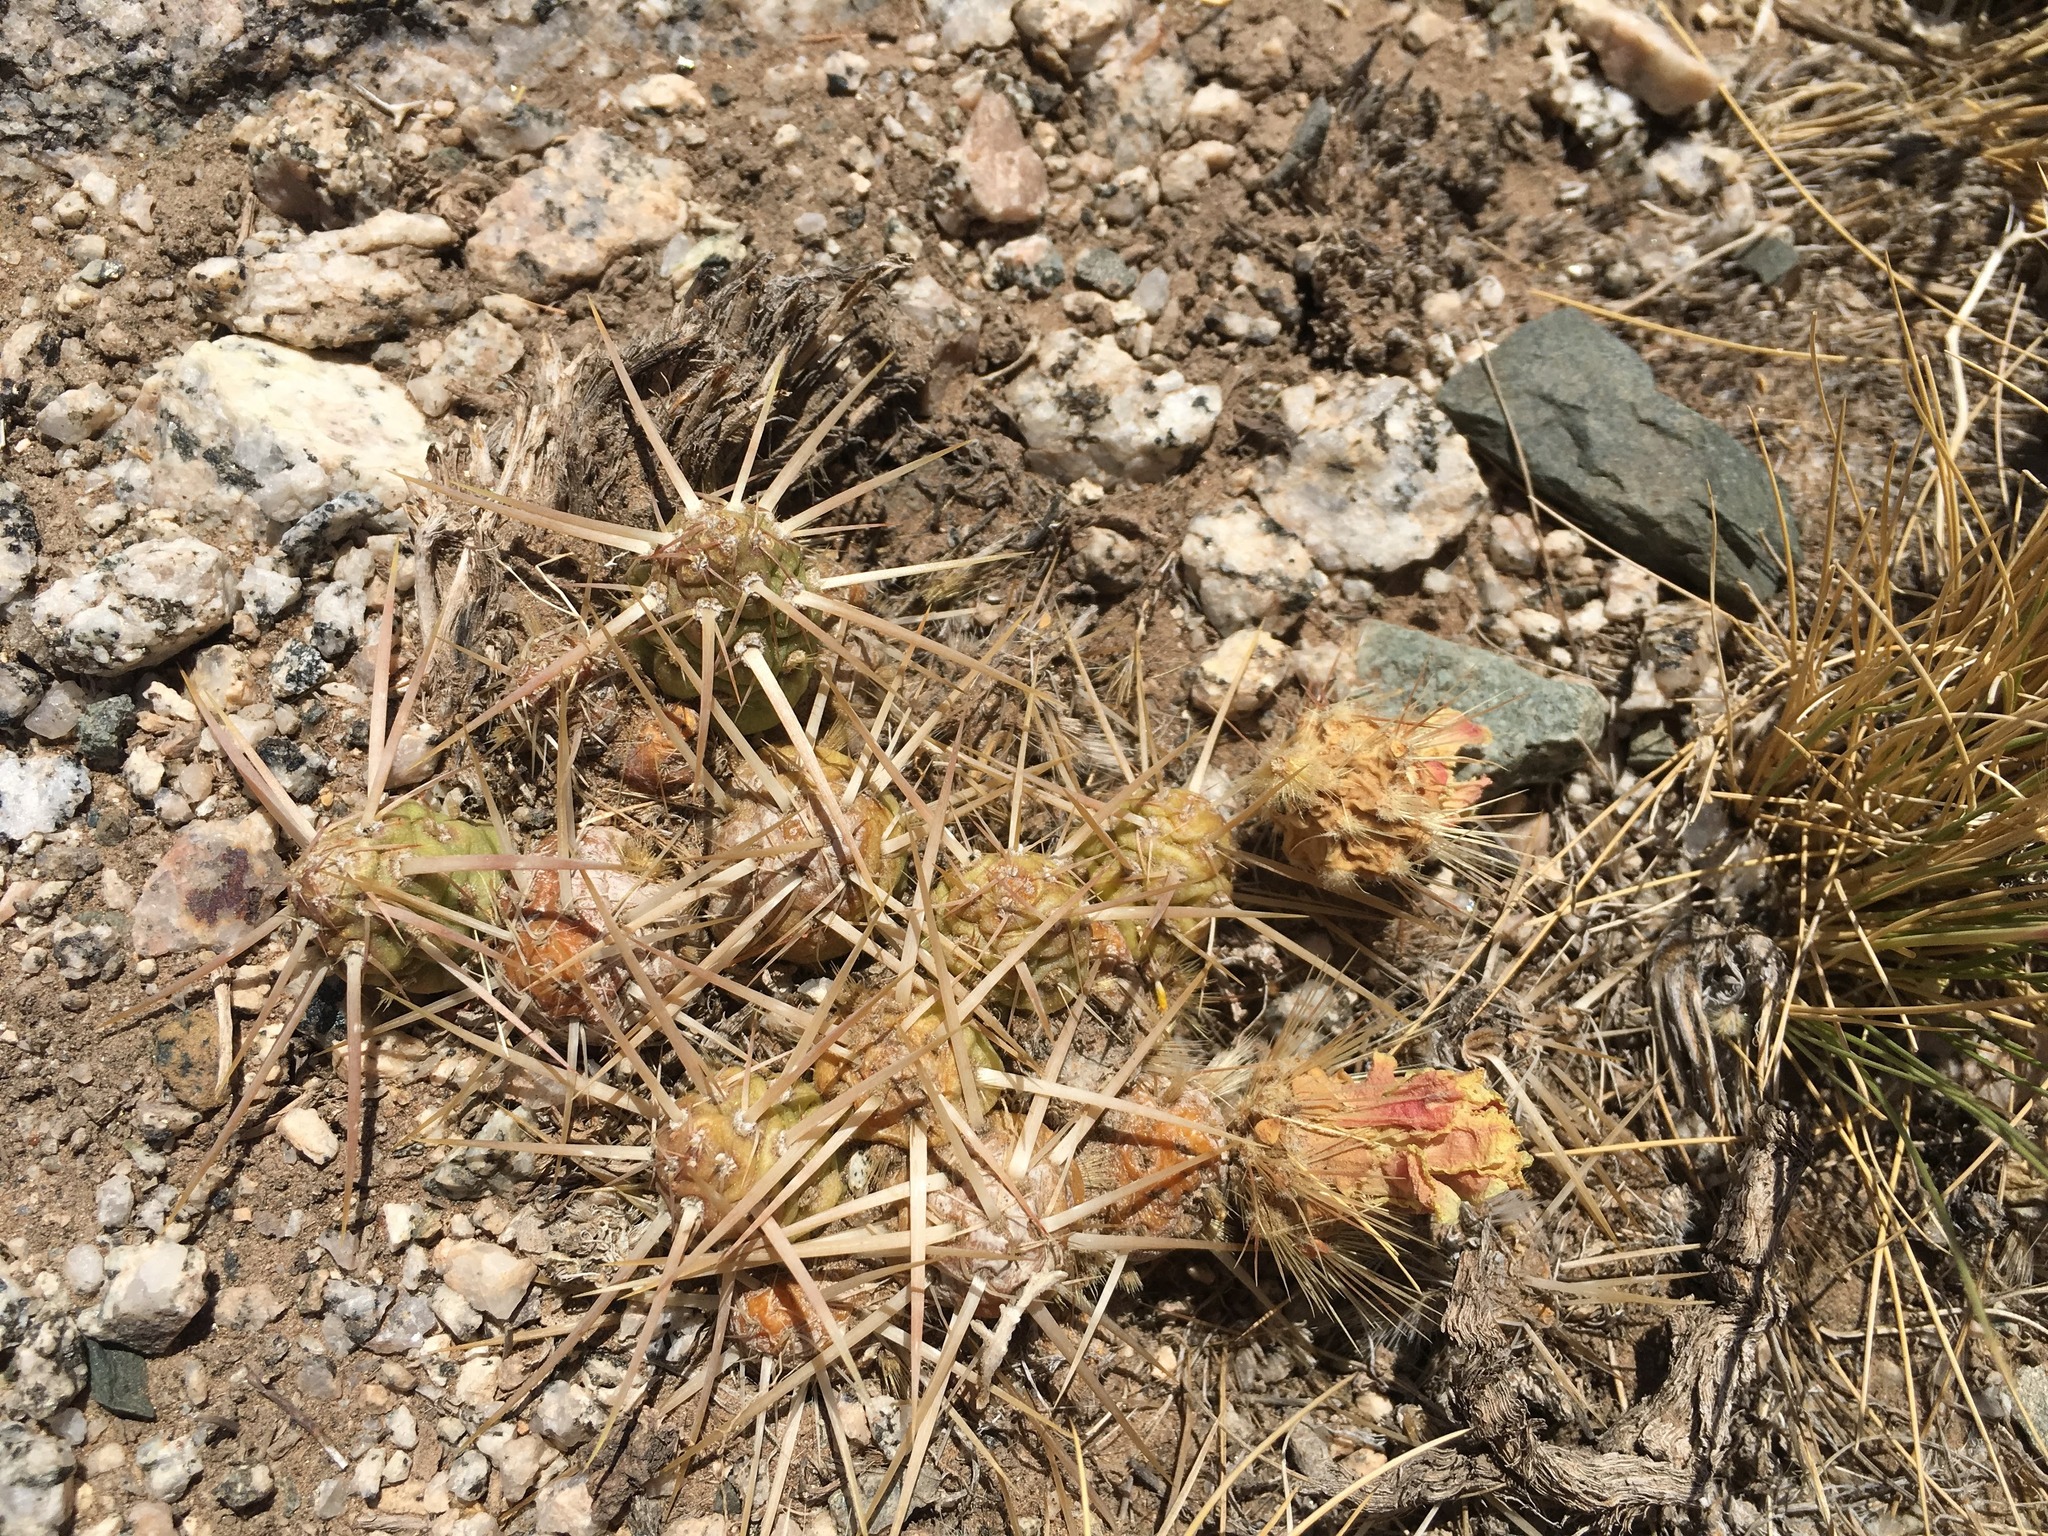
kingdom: Plantae
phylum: Tracheophyta
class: Magnoliopsida
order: Caryophyllales
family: Cactaceae
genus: Maihueniopsis
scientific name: Maihueniopsis archiconoidea
